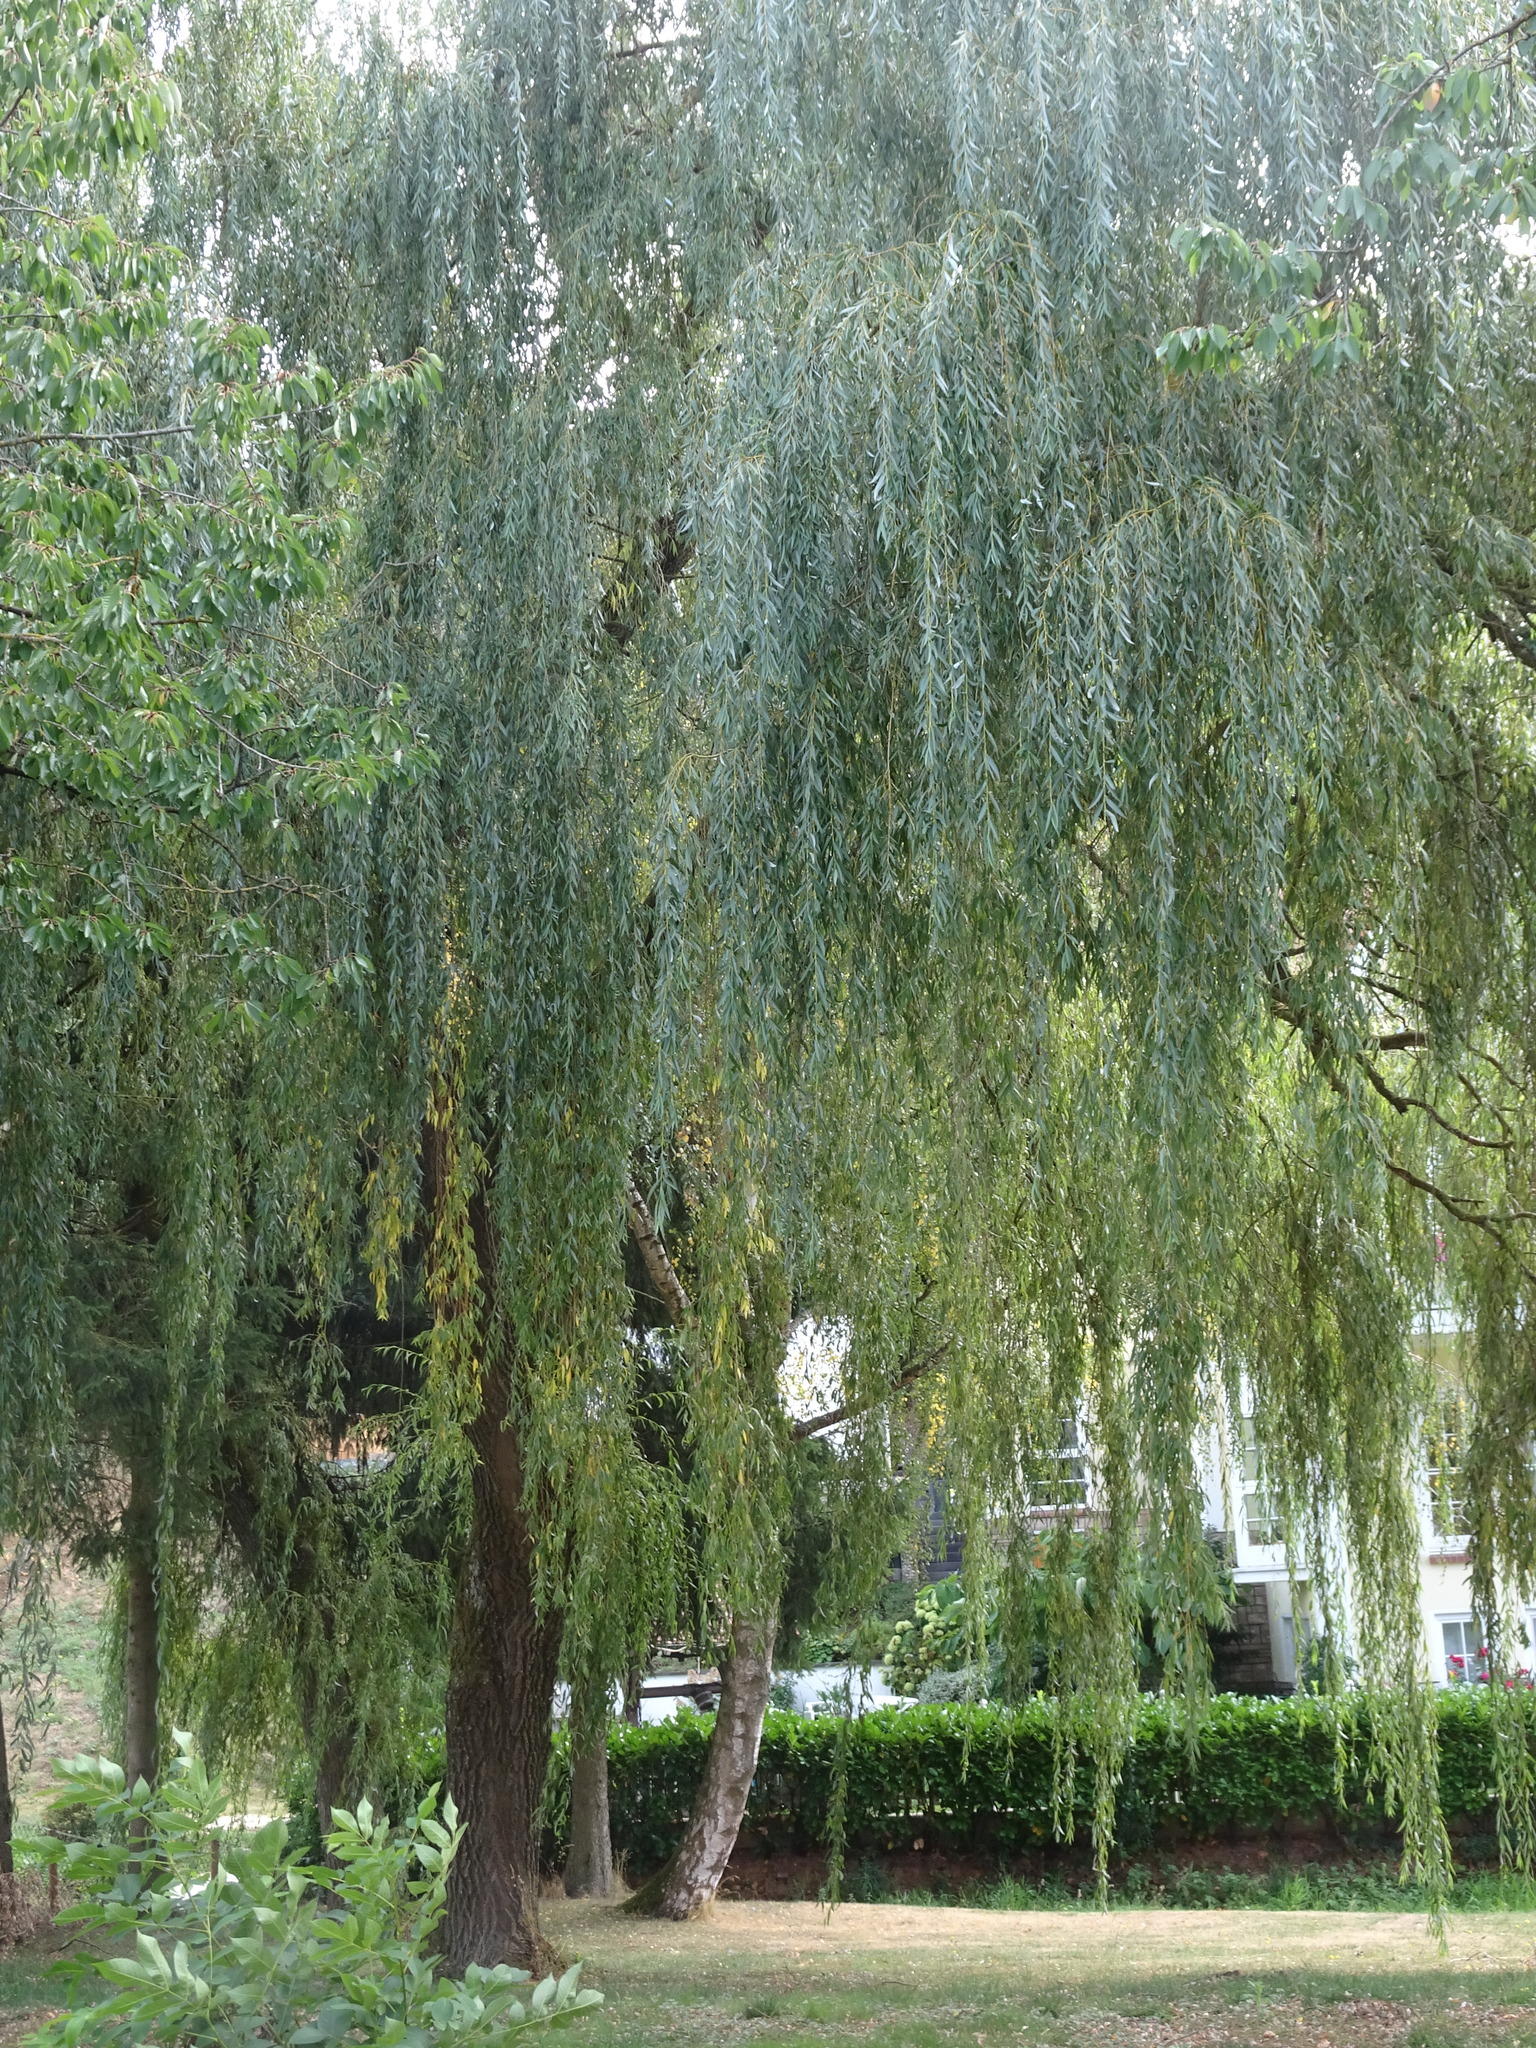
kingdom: Plantae
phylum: Tracheophyta
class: Magnoliopsida
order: Malpighiales
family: Salicaceae
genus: Salix
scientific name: Salix pendulina
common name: Wisconsin weeping willow
